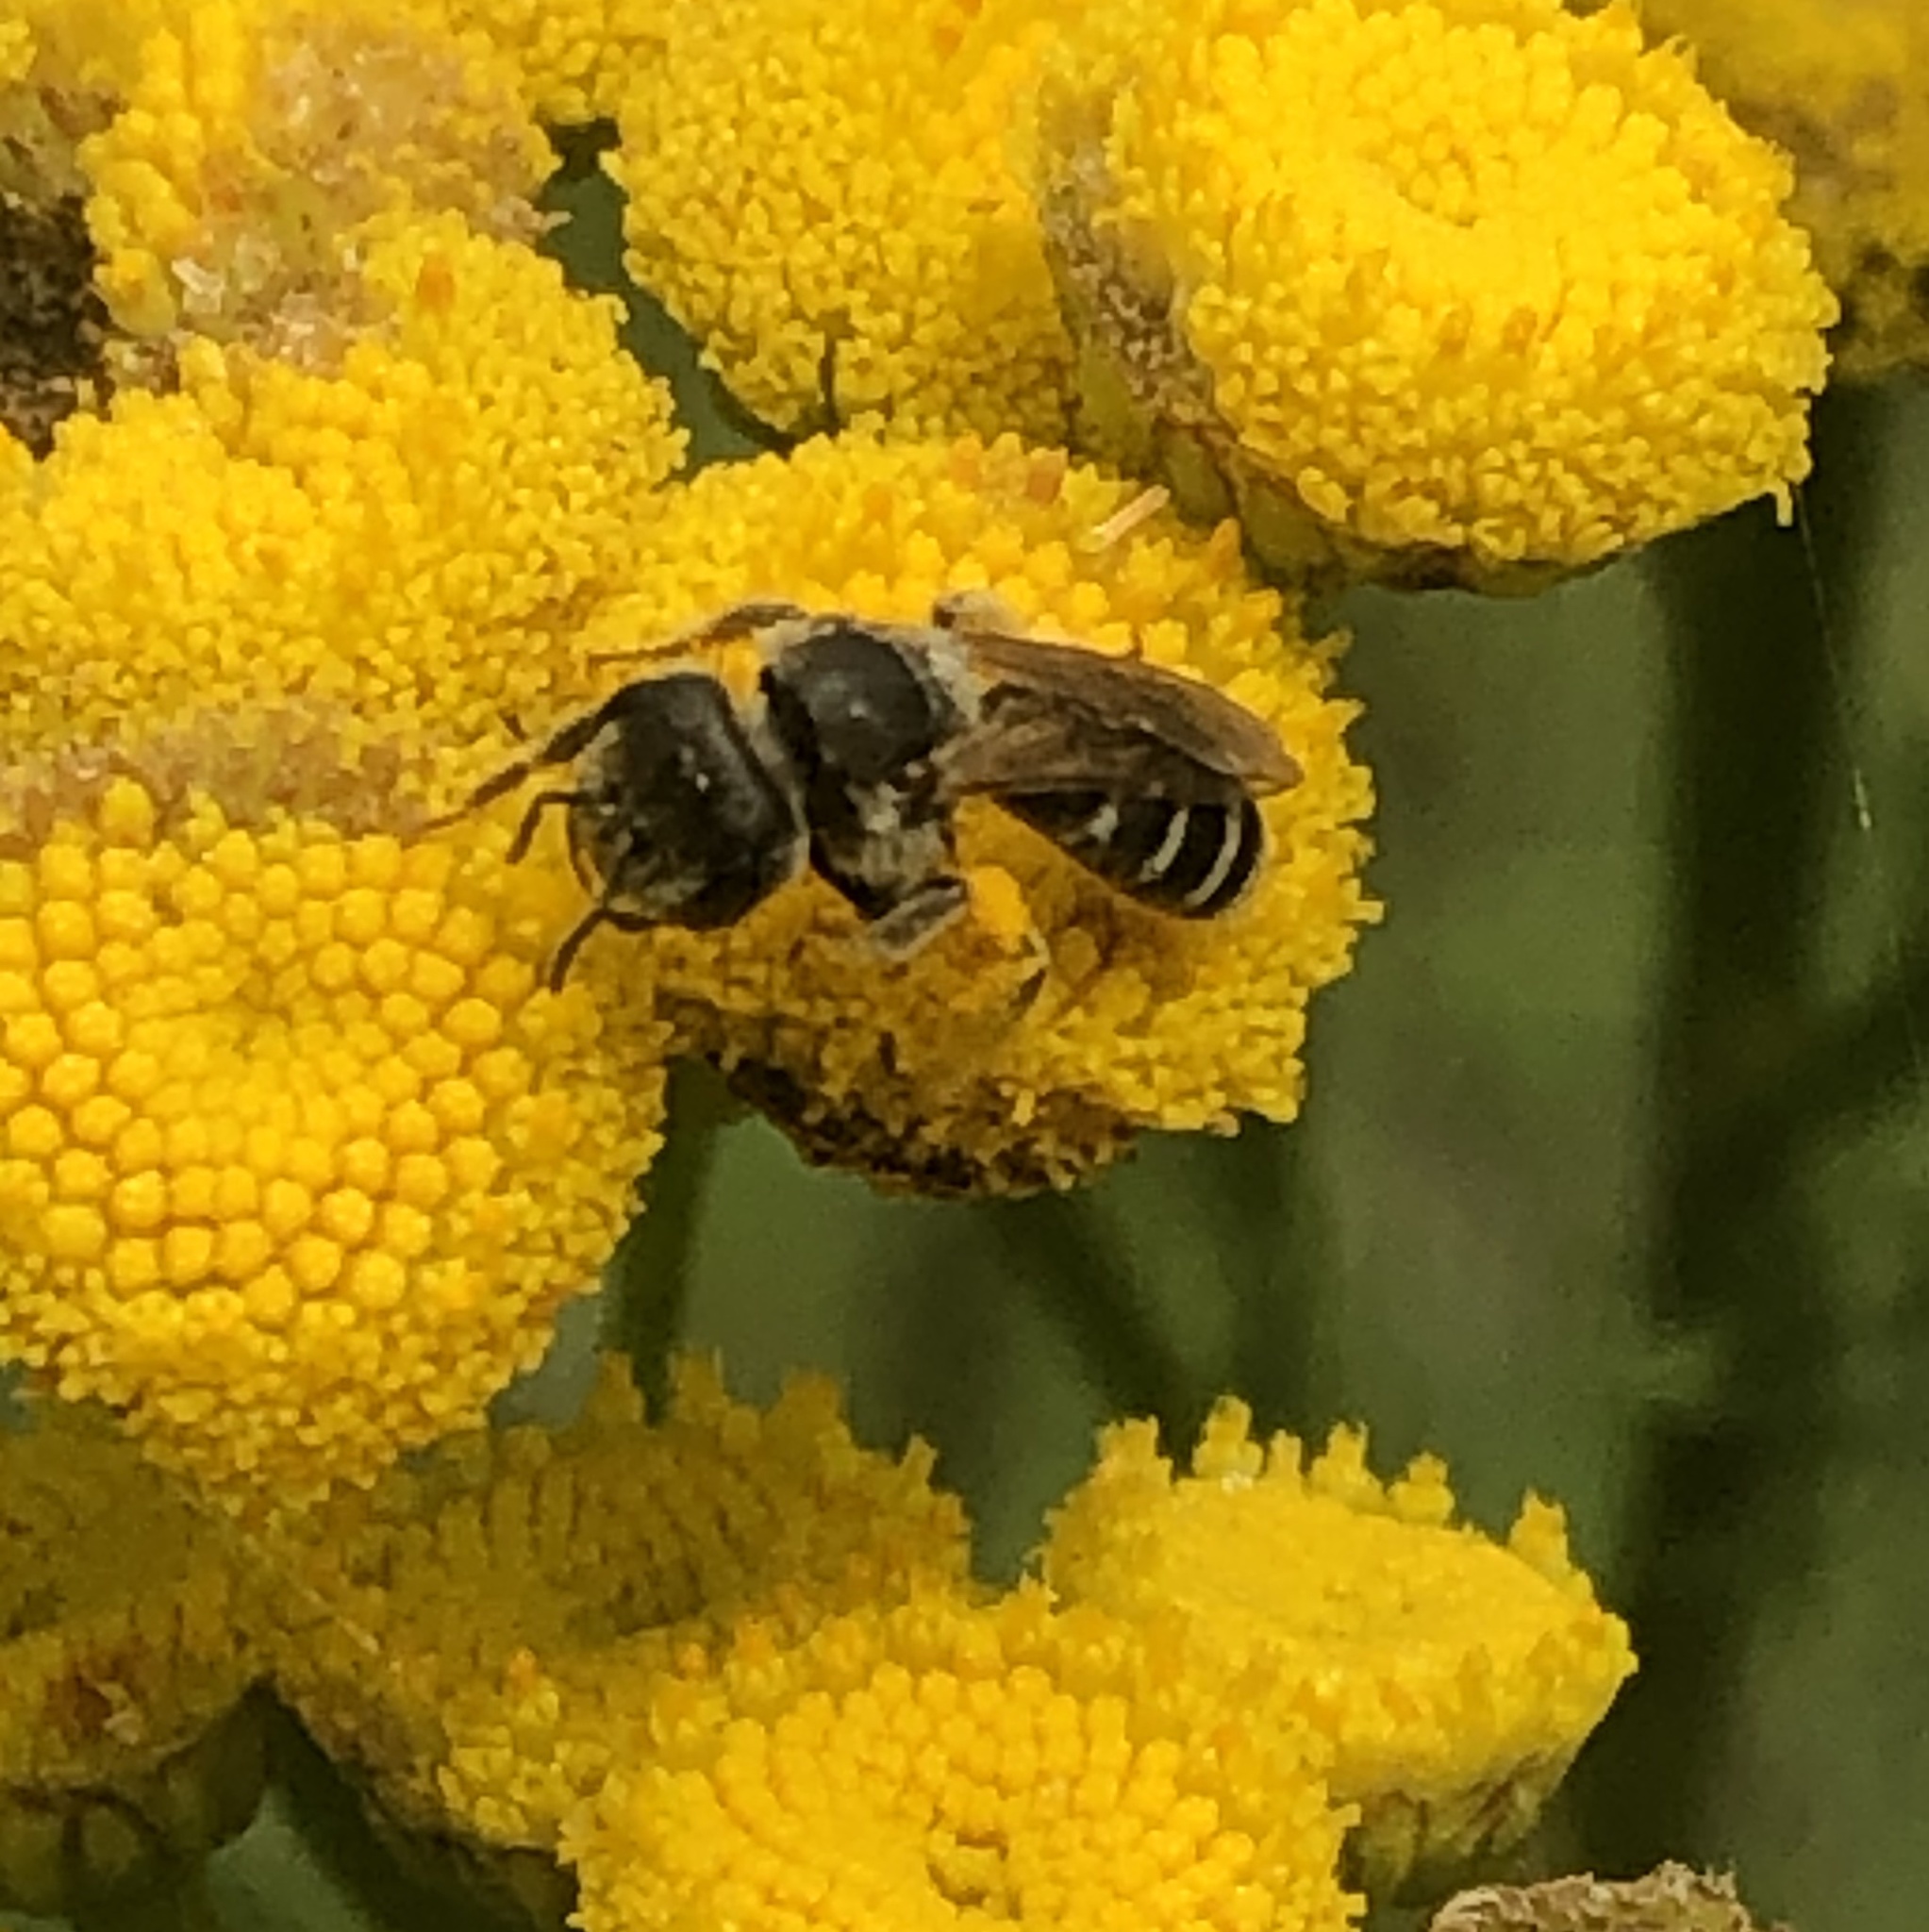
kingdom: Animalia
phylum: Arthropoda
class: Insecta
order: Hymenoptera
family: Halictidae
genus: Halictus
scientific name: Halictus ligatus
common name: Ligated furrow bee
